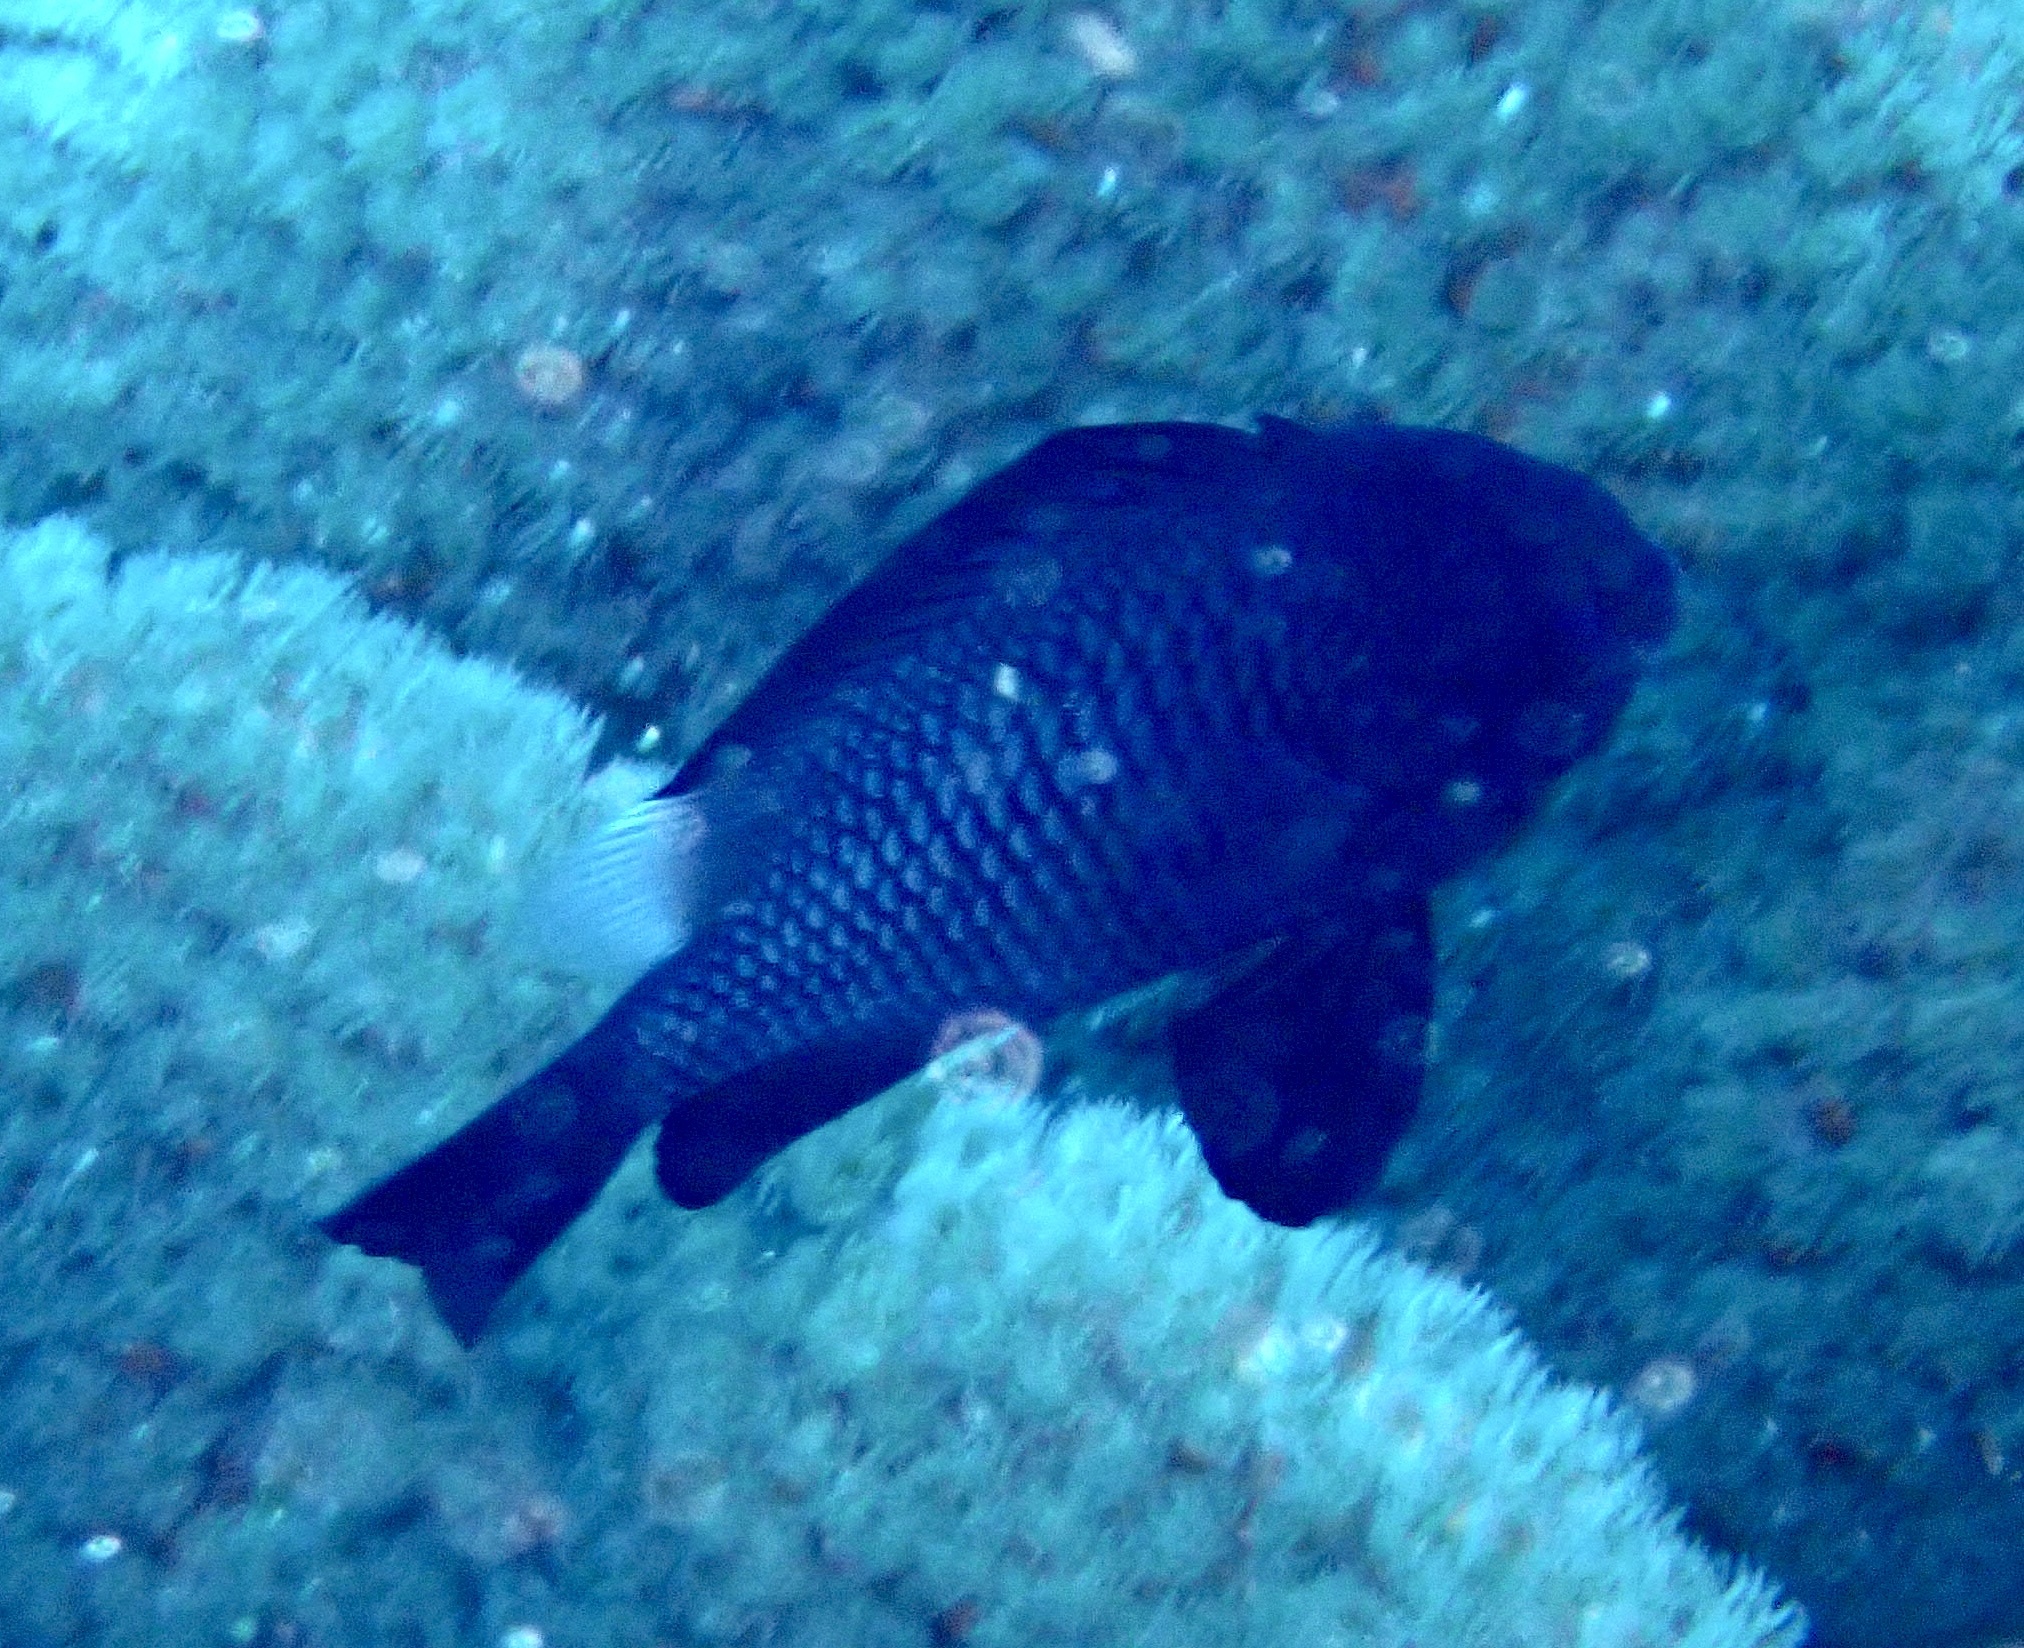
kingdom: Animalia
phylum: Chordata
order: Perciformes
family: Pomacentridae
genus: Dascyllus
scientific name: Dascyllus trimaculatus
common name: Threespot dascyllus
